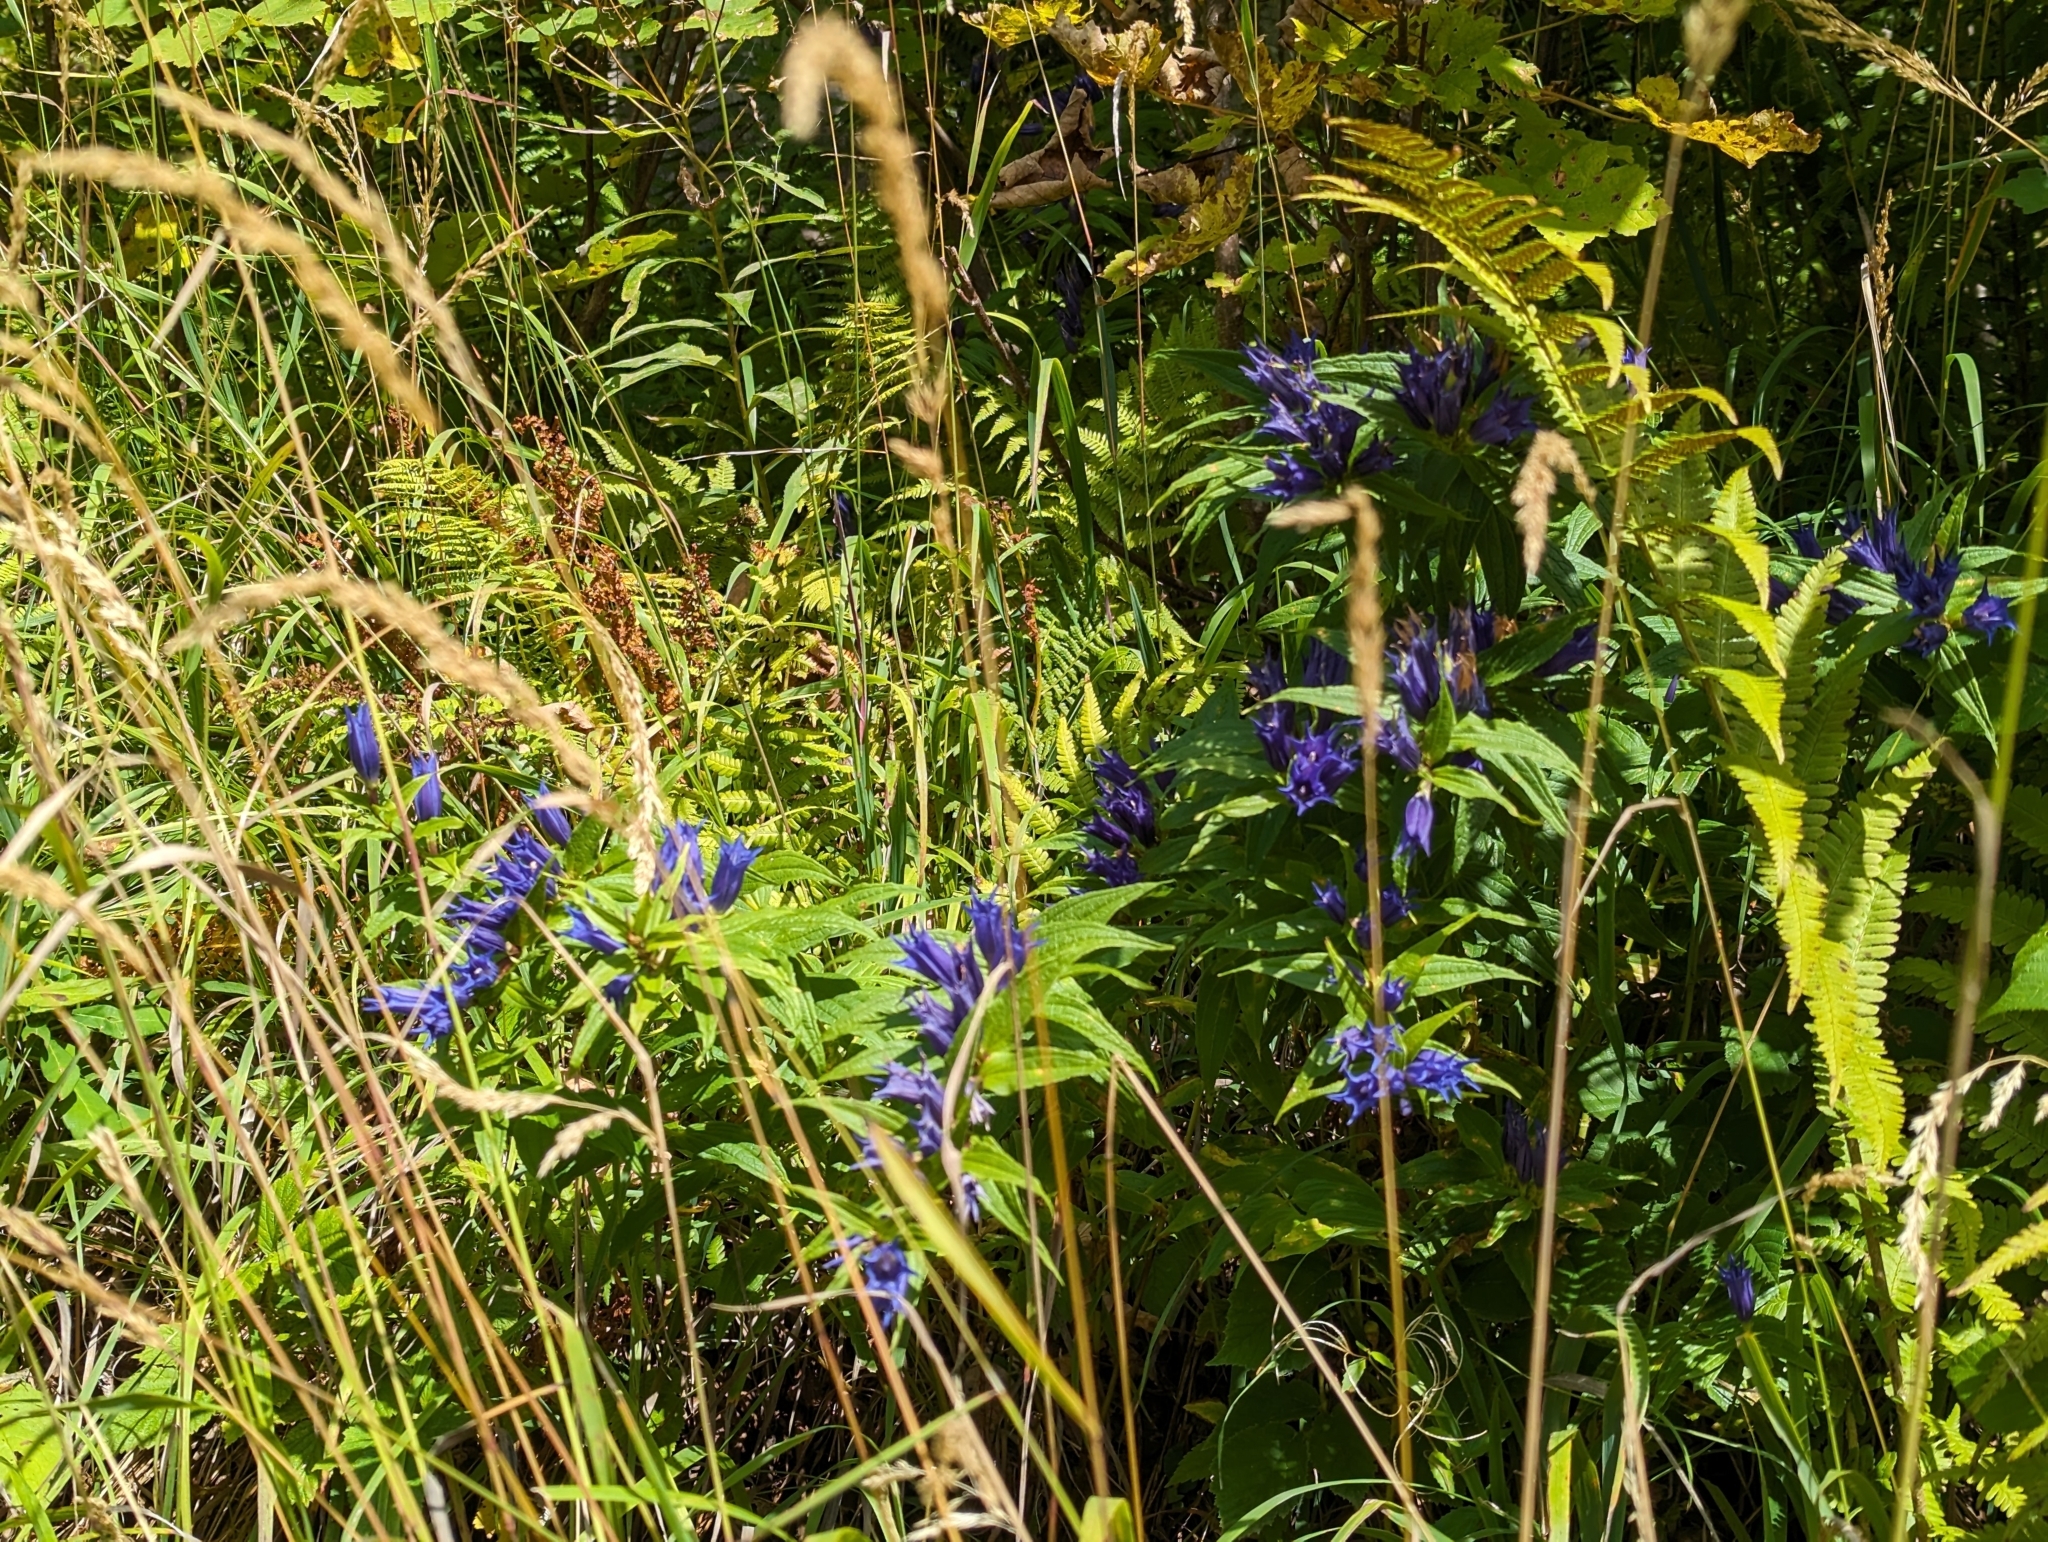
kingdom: Plantae
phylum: Tracheophyta
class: Magnoliopsida
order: Gentianales
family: Gentianaceae
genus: Gentiana
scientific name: Gentiana asclepiadea
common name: Willow gentian
